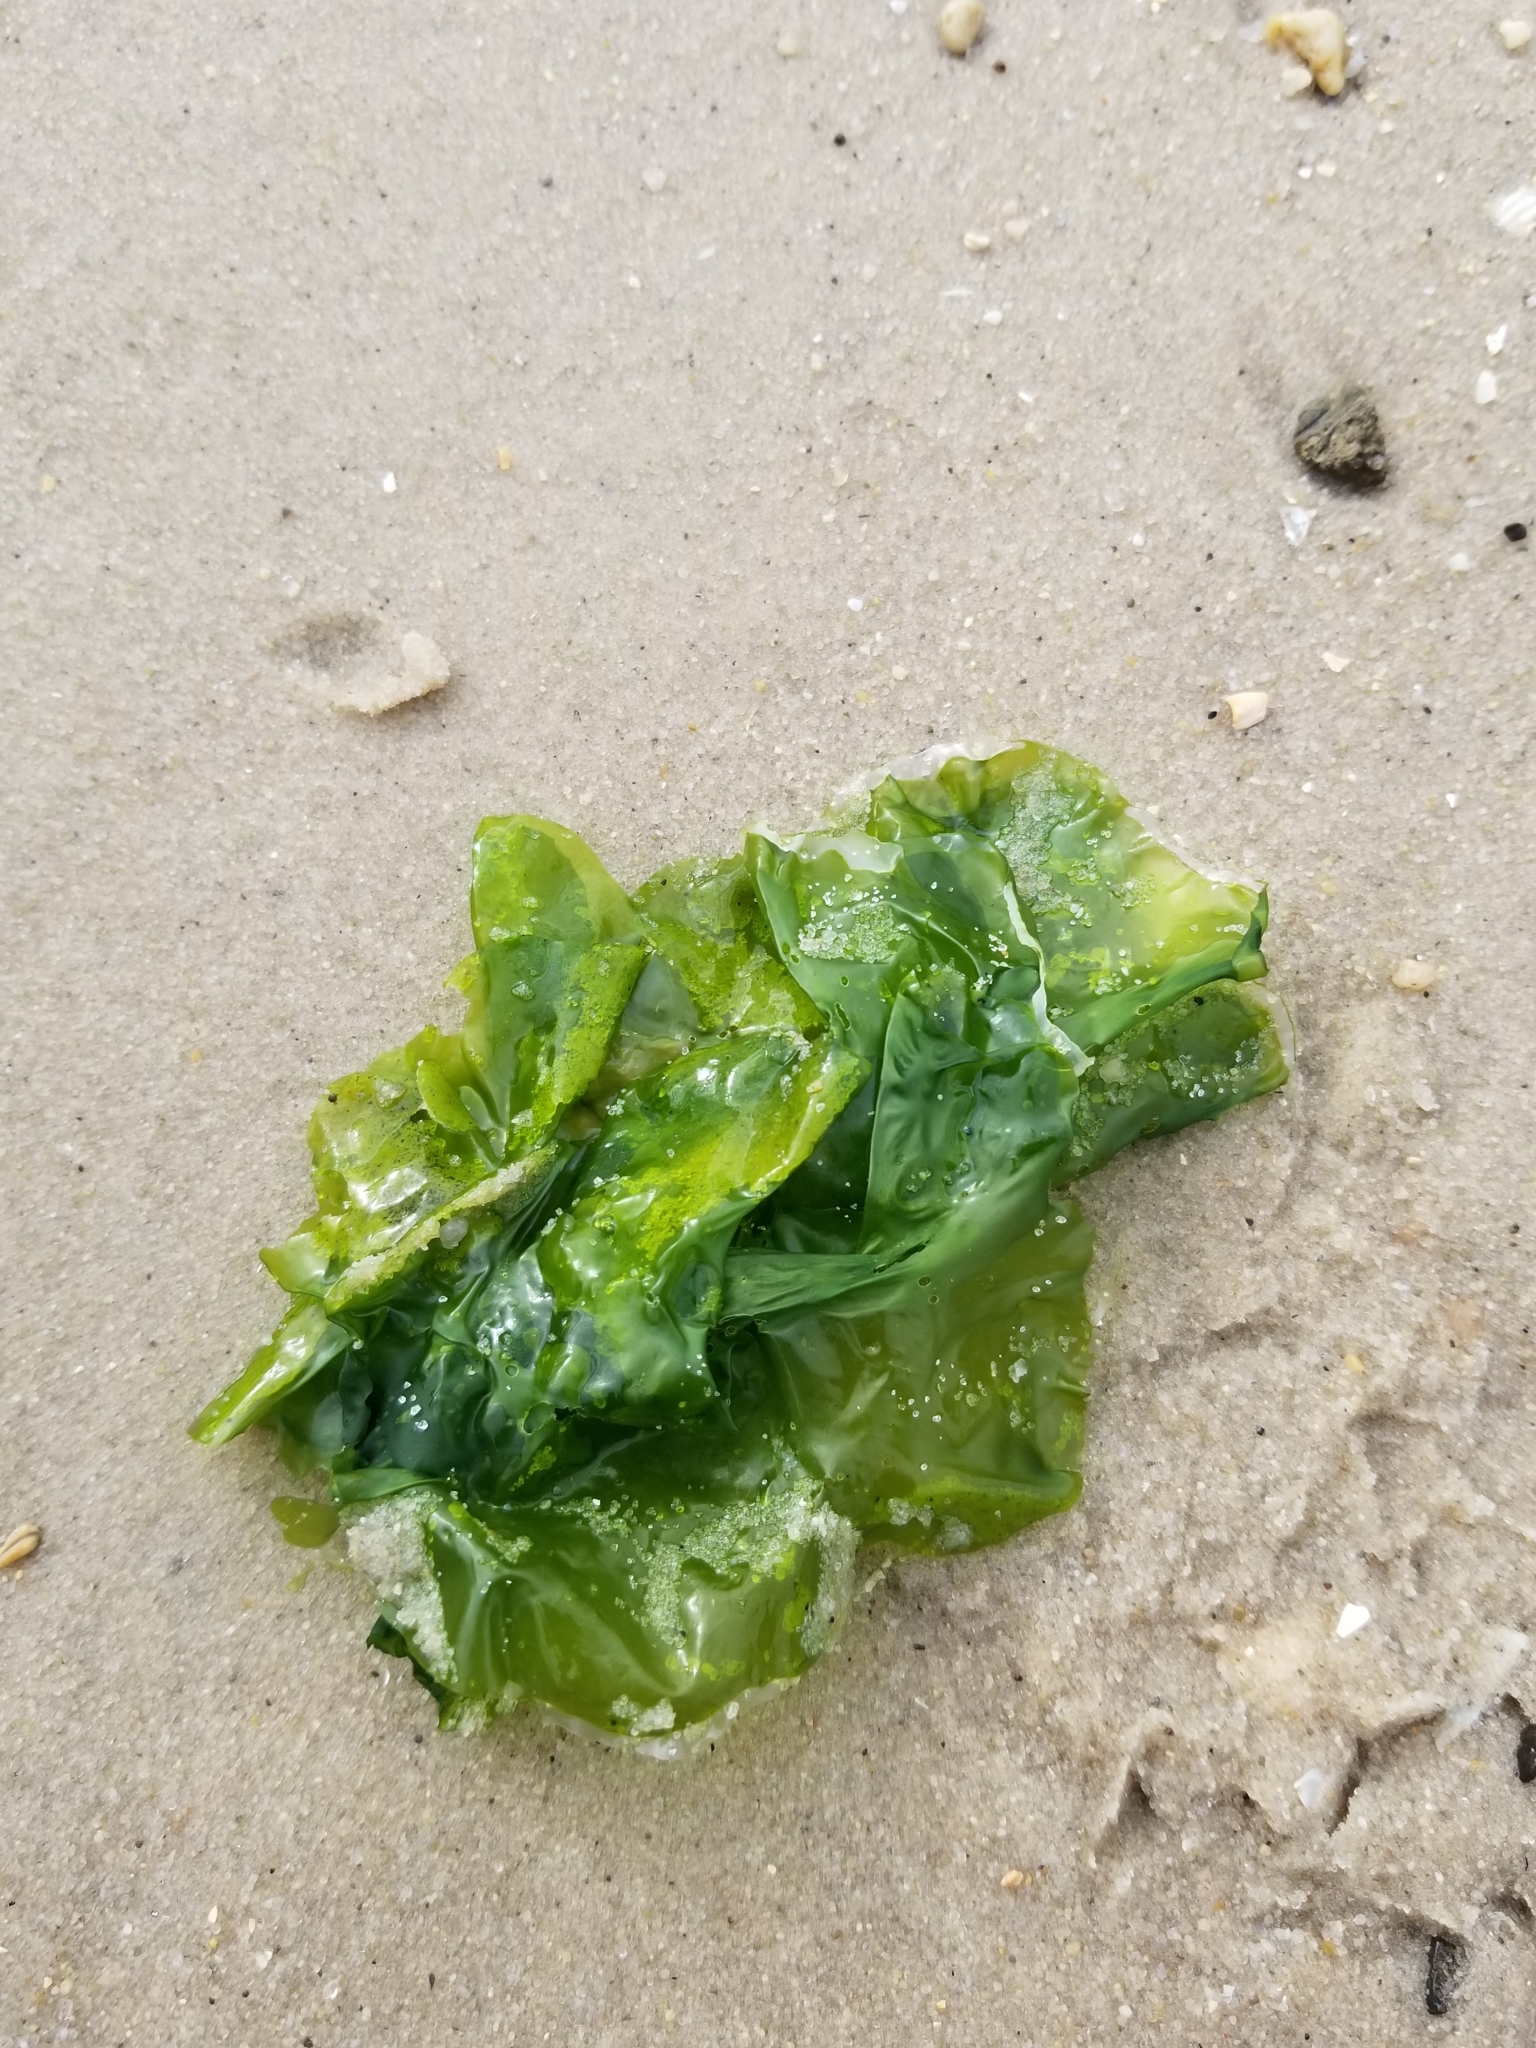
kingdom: Plantae
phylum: Chlorophyta
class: Ulvophyceae
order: Ulvales
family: Ulvaceae
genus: Ulva
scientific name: Ulva lactuca
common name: Sea lettuce
